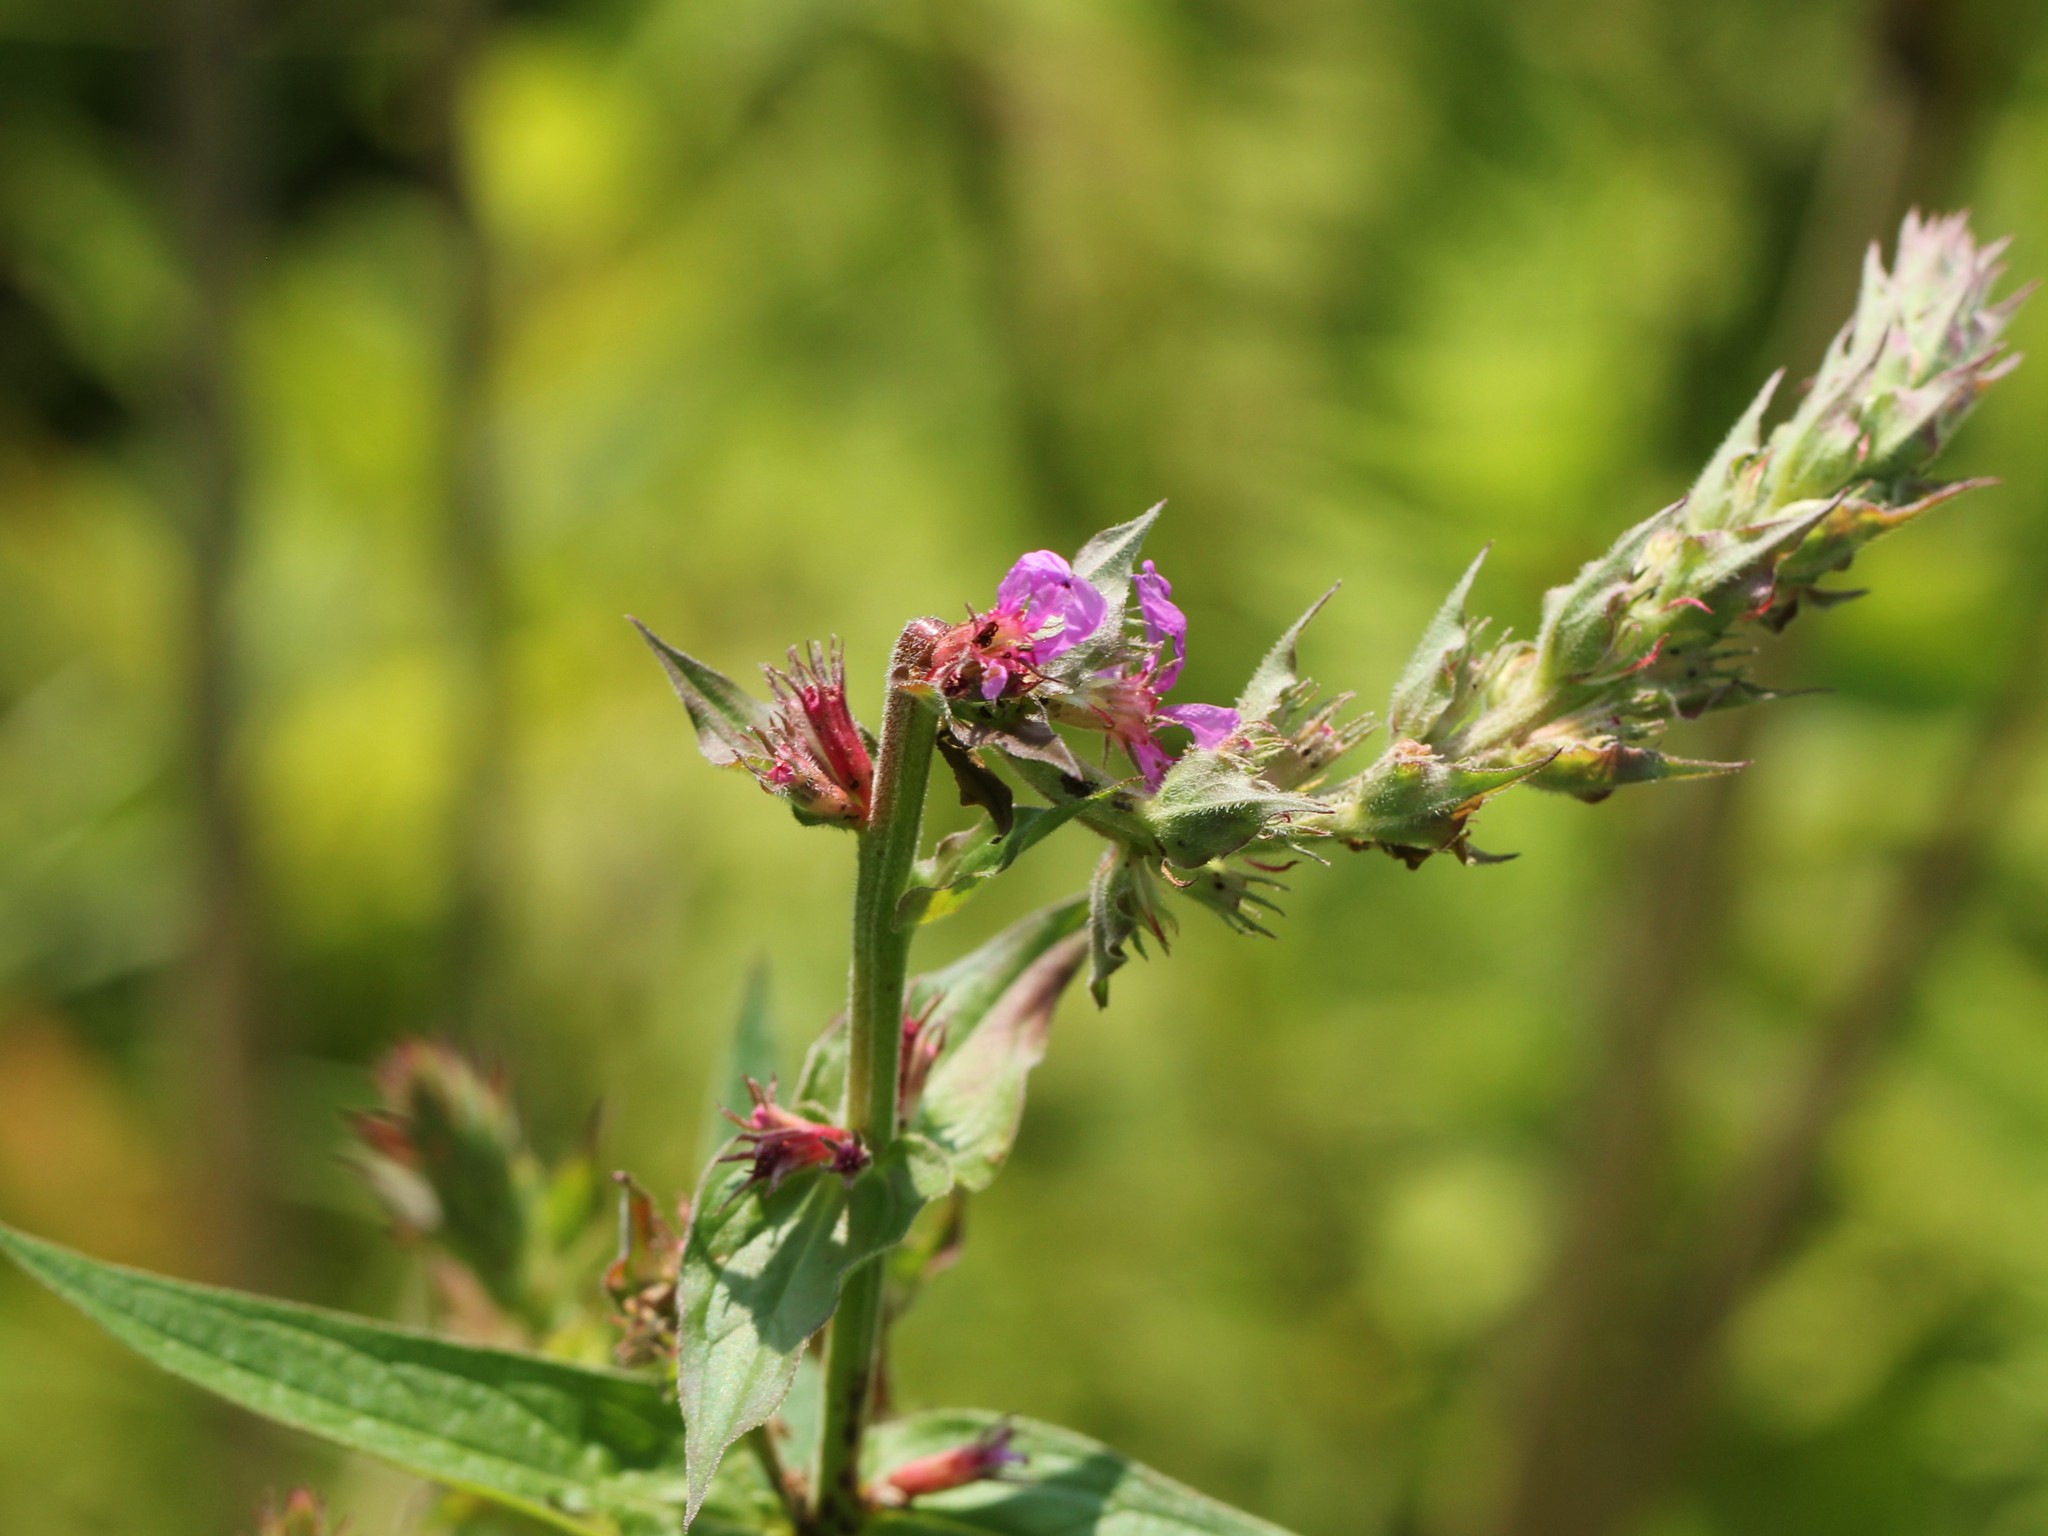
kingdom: Plantae
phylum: Tracheophyta
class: Magnoliopsida
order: Myrtales
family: Lythraceae
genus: Lythrum
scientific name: Lythrum salicaria
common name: Purple loosestrife
